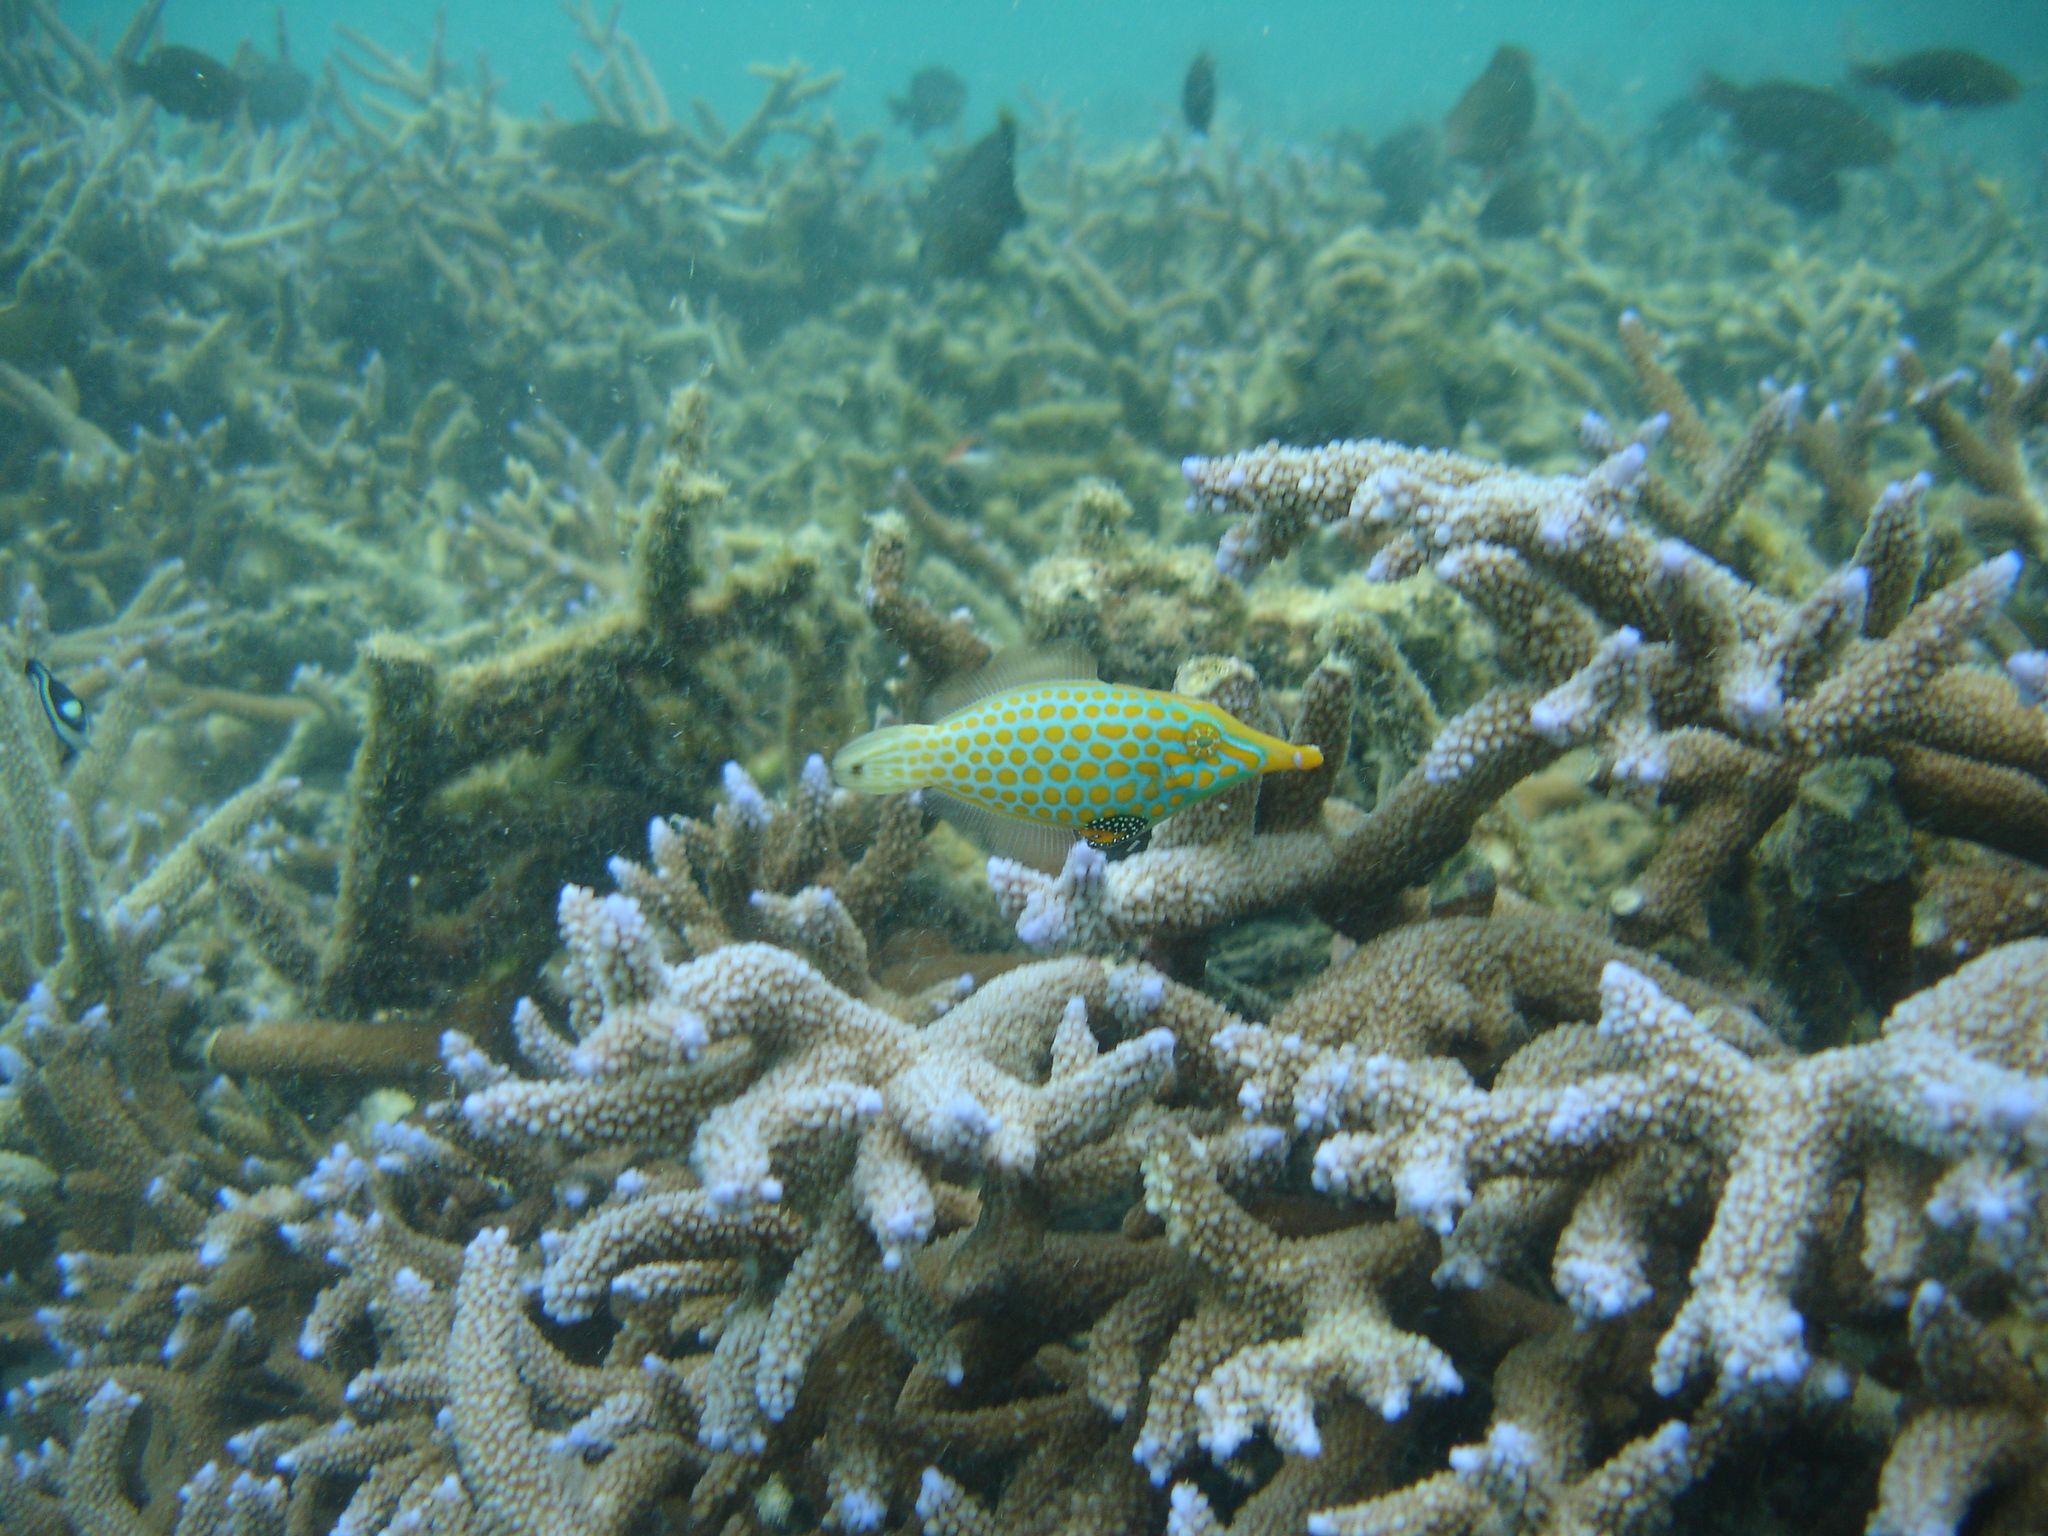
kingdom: Animalia
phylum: Chordata
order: Tetraodontiformes
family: Monacanthidae
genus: Oxymonacanthus
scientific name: Oxymonacanthus longirostris
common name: Beaked leatherjacket
